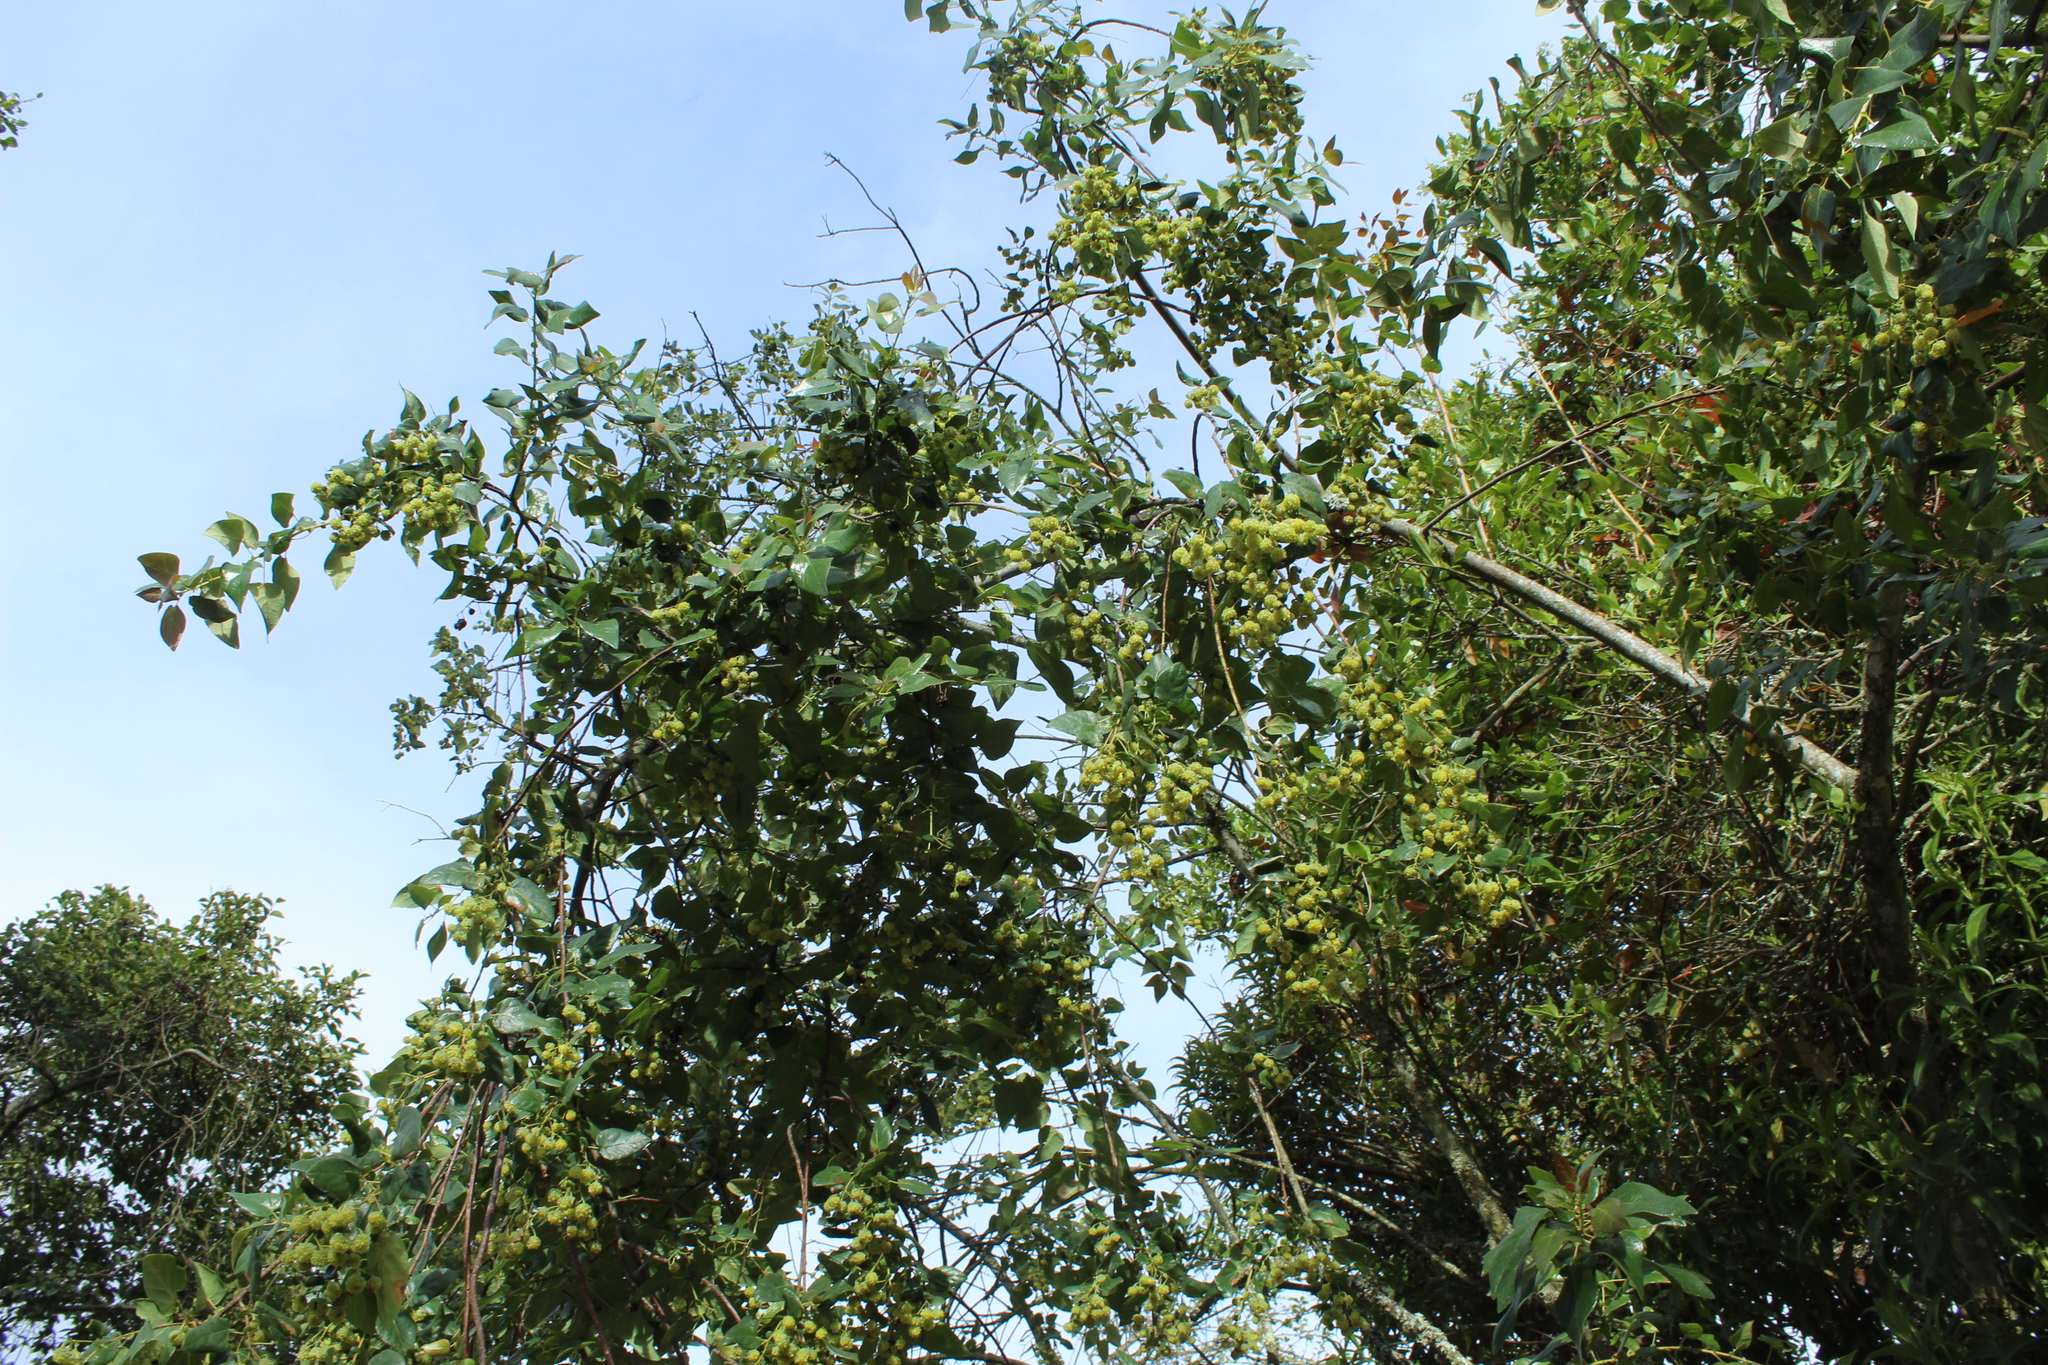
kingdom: Plantae
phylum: Tracheophyta
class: Magnoliopsida
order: Oxalidales
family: Elaeocarpaceae
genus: Vallea
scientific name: Vallea stipularis
